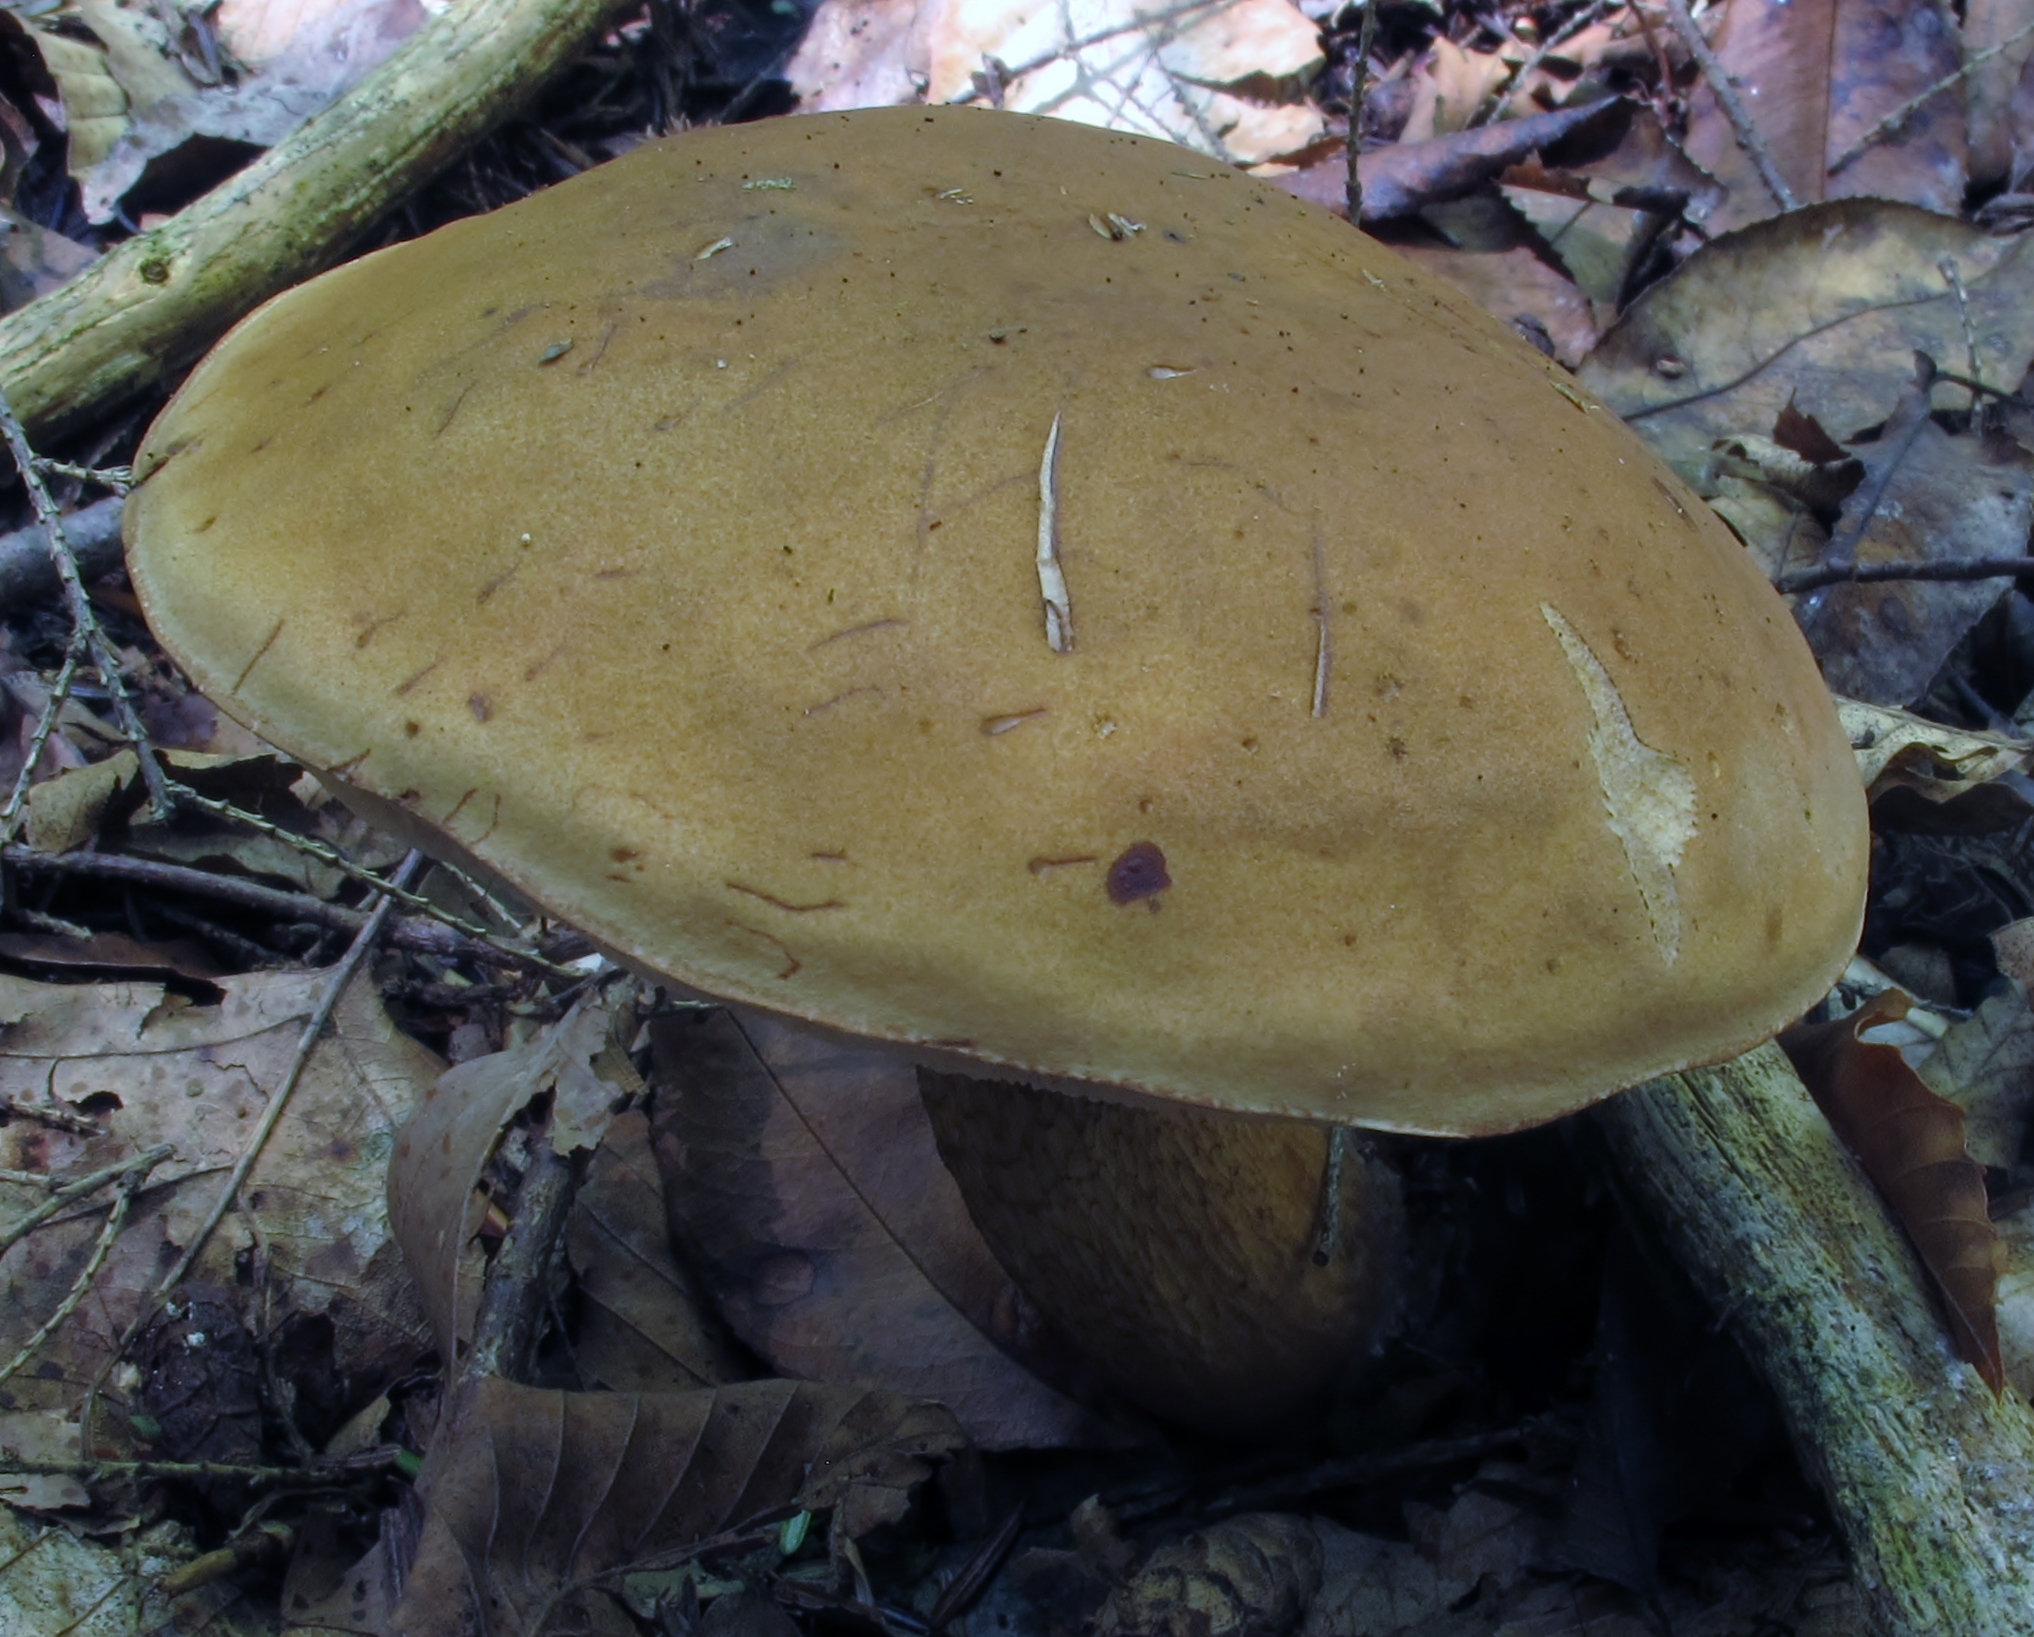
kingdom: Fungi
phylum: Basidiomycota
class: Agaricomycetes
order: Boletales
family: Boletaceae
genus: Tylopilus
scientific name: Tylopilus felleus
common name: Bitter bolete
